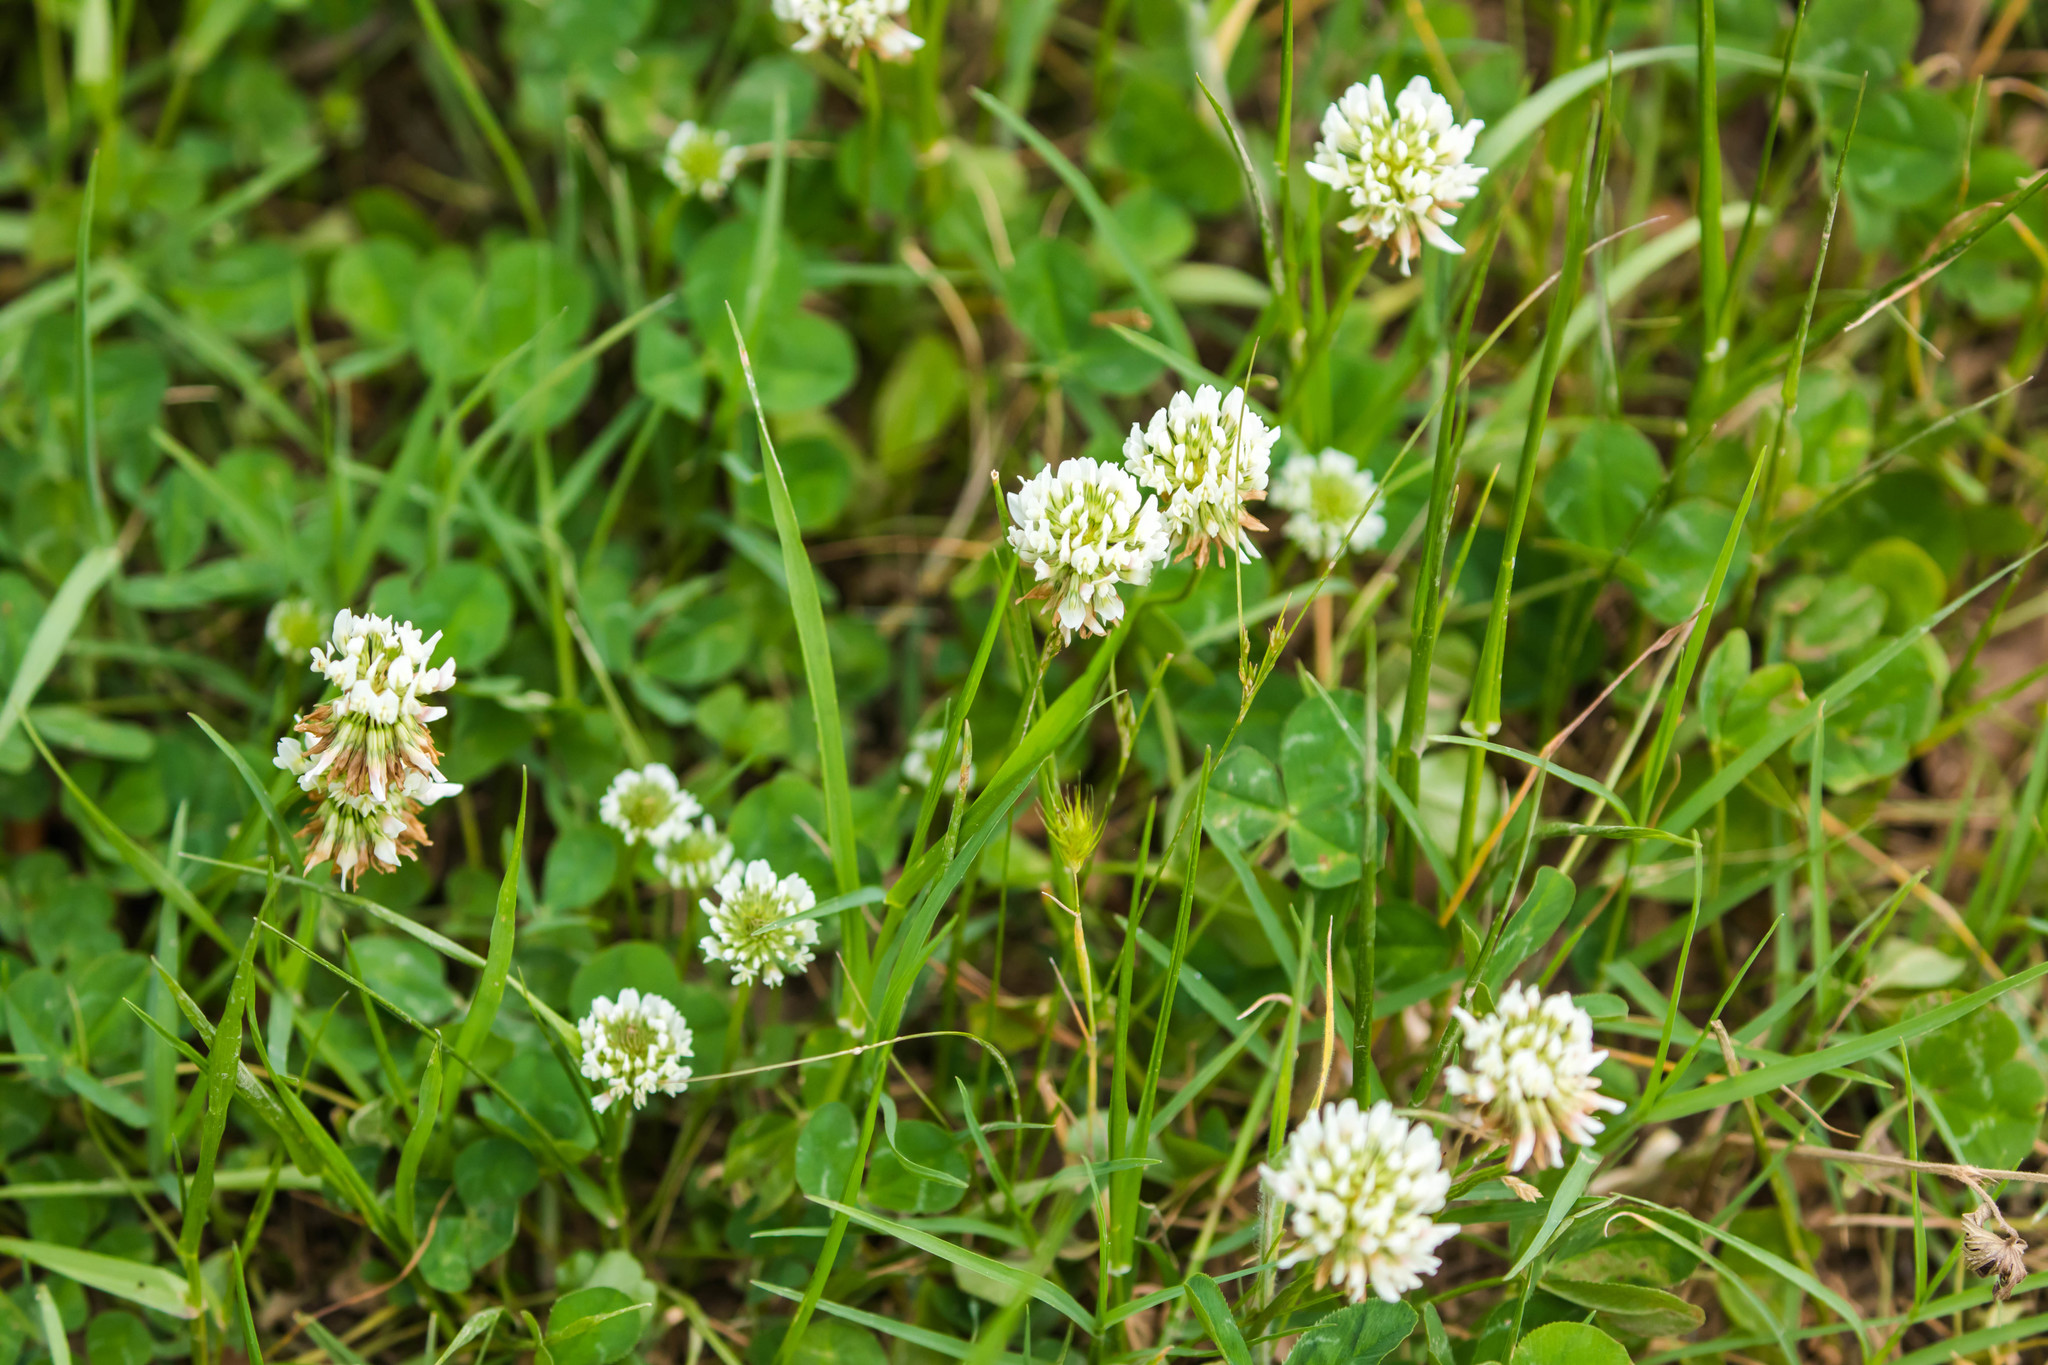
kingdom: Plantae
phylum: Tracheophyta
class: Magnoliopsida
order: Fabales
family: Fabaceae
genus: Trifolium
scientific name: Trifolium repens
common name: White clover
